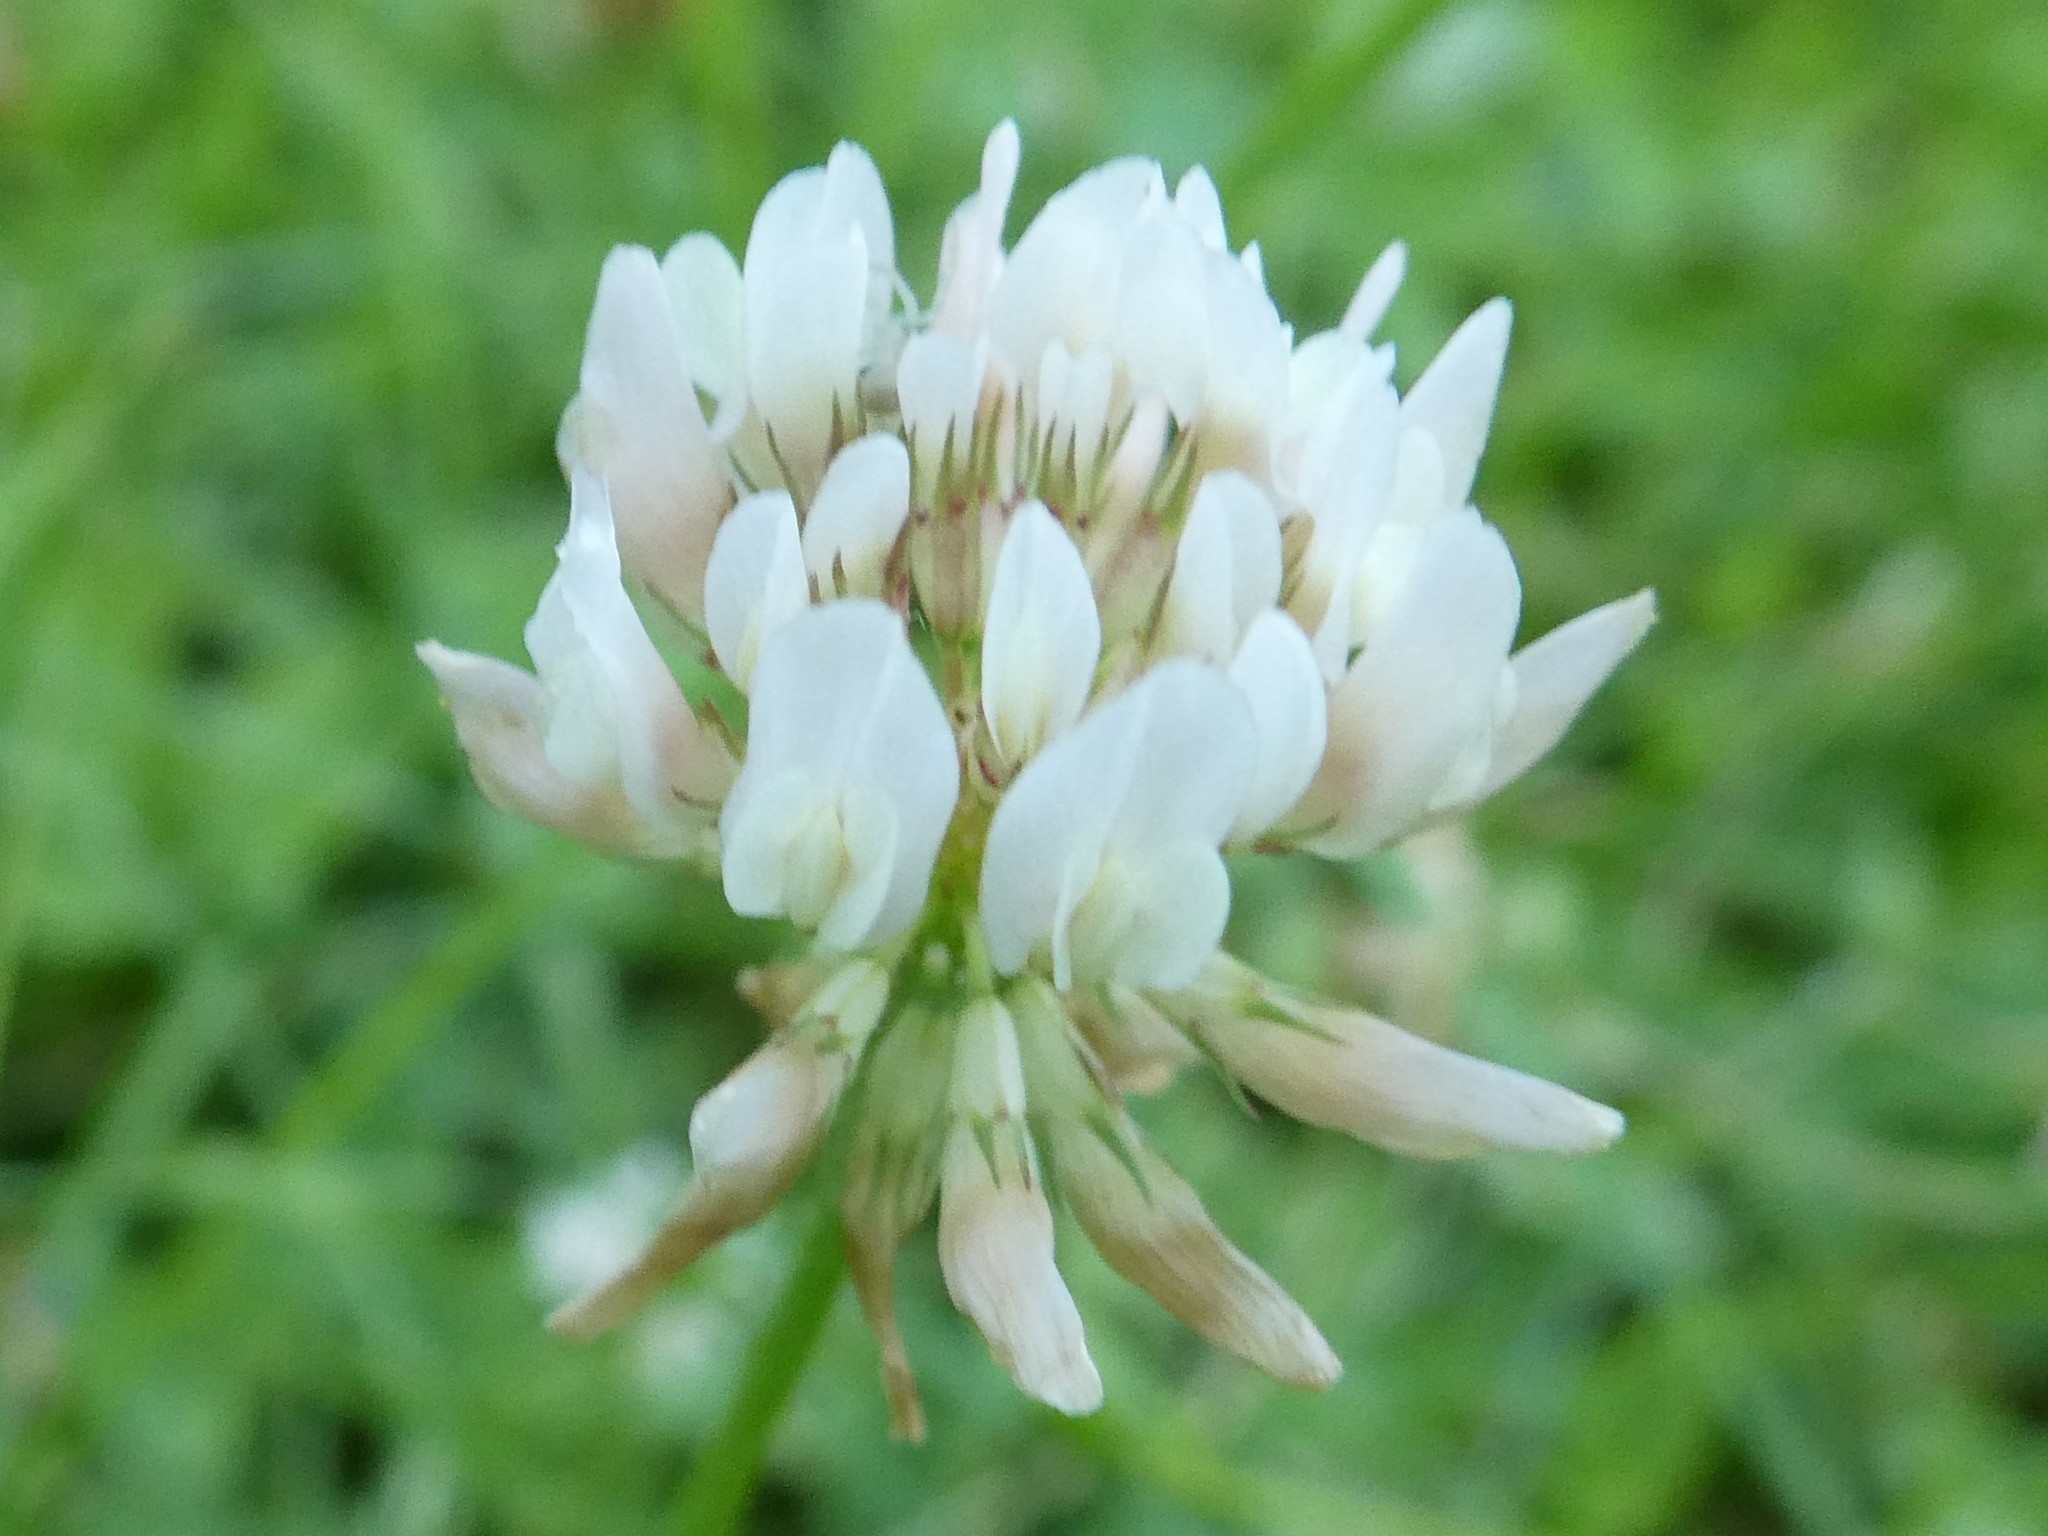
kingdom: Plantae
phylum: Tracheophyta
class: Magnoliopsida
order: Fabales
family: Fabaceae
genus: Trifolium
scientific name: Trifolium repens
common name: White clover
